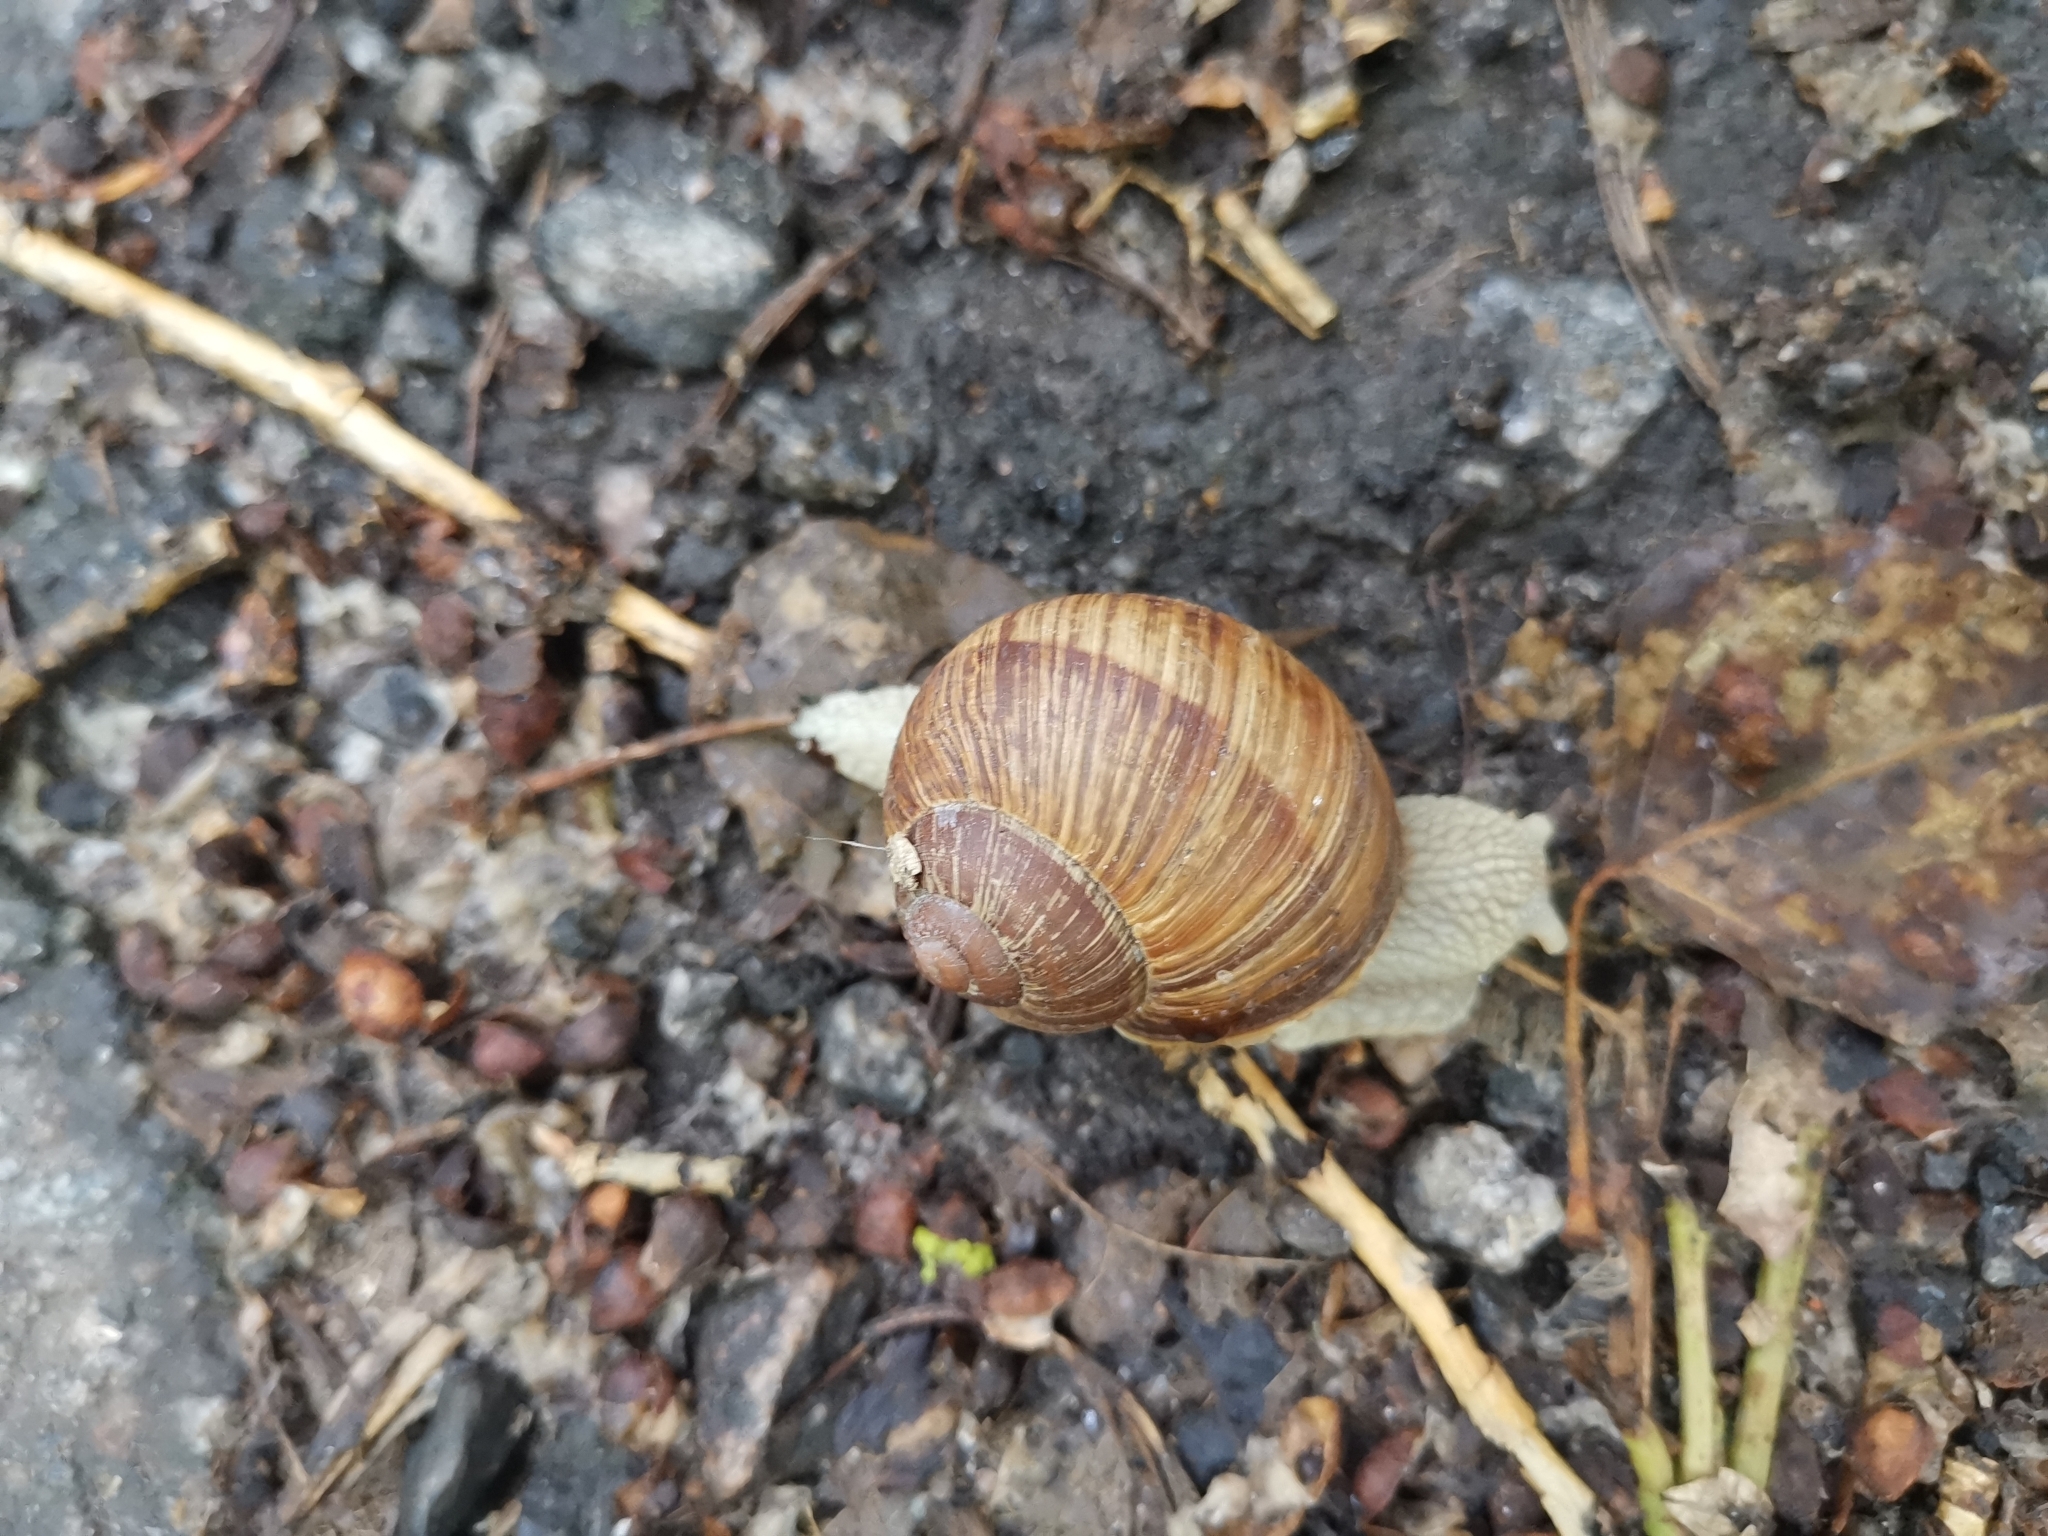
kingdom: Animalia
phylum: Mollusca
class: Gastropoda
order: Stylommatophora
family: Helicidae
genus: Helix
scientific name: Helix pomatia
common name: Roman snail
